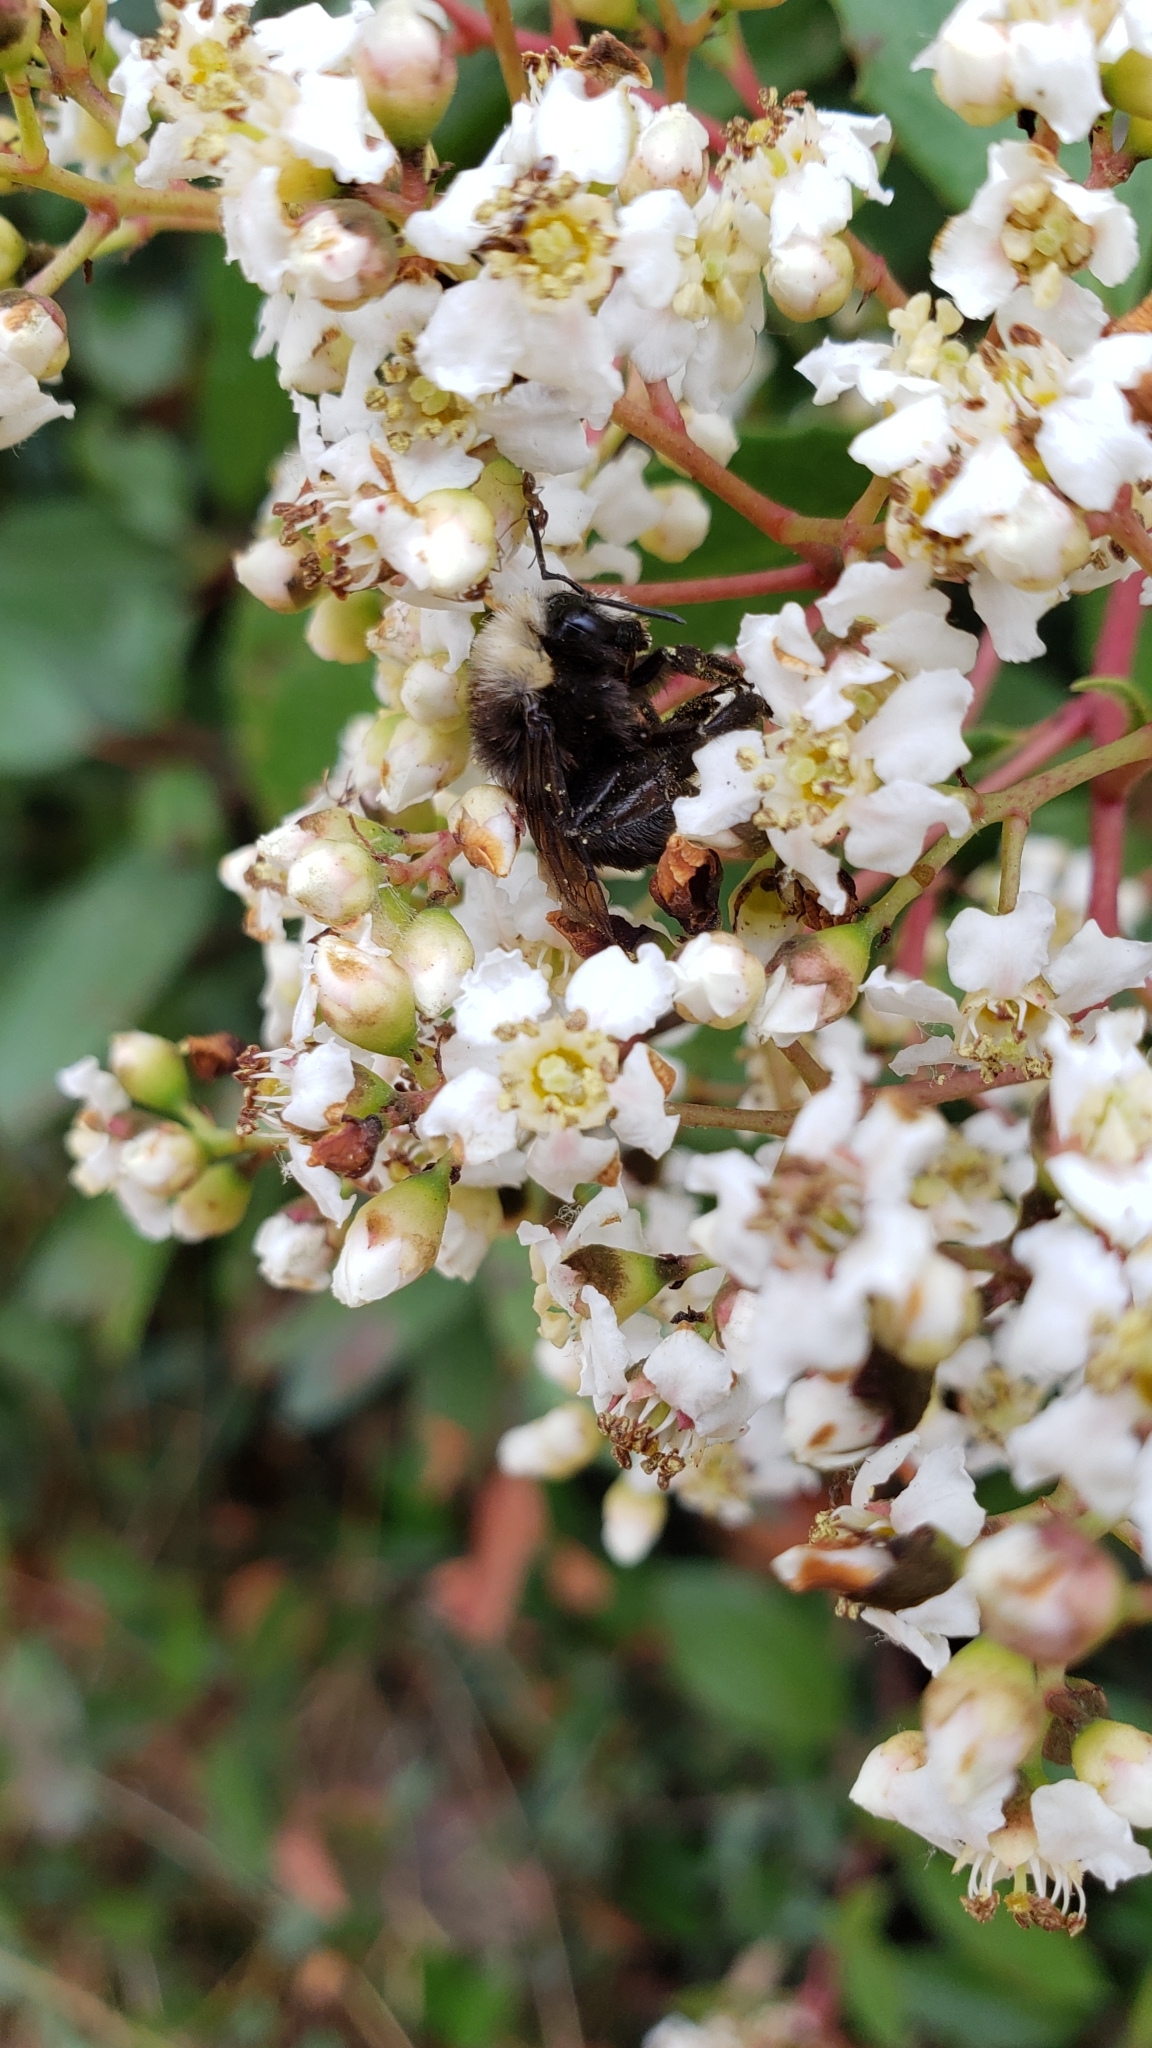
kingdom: Animalia
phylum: Arthropoda
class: Insecta
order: Hymenoptera
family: Apidae
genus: Bombus
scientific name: Bombus vosnesenskii
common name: Vosnesensky bumble bee
